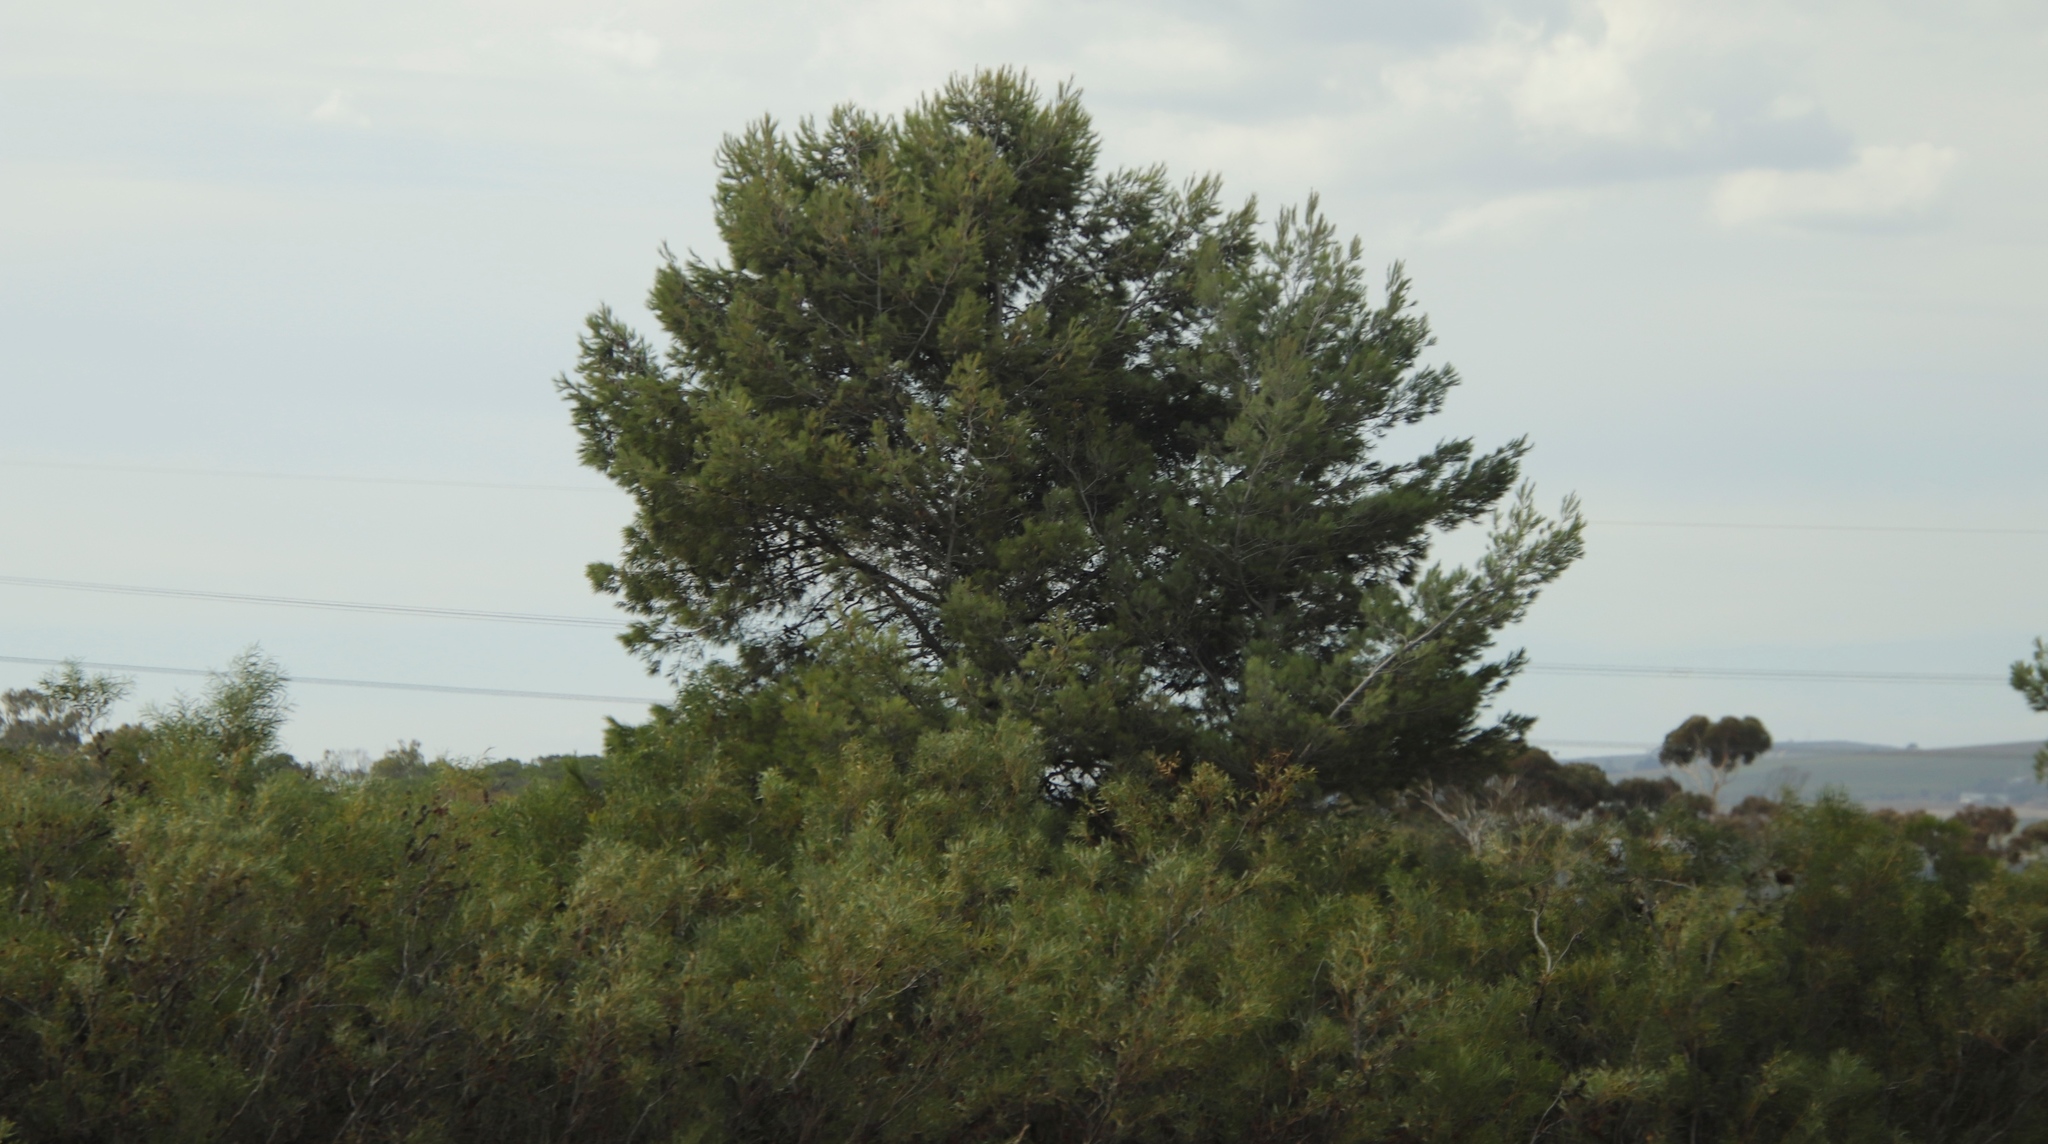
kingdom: Plantae
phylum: Tracheophyta
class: Pinopsida
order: Pinales
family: Pinaceae
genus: Pinus
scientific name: Pinus halepensis
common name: Aleppo pine
